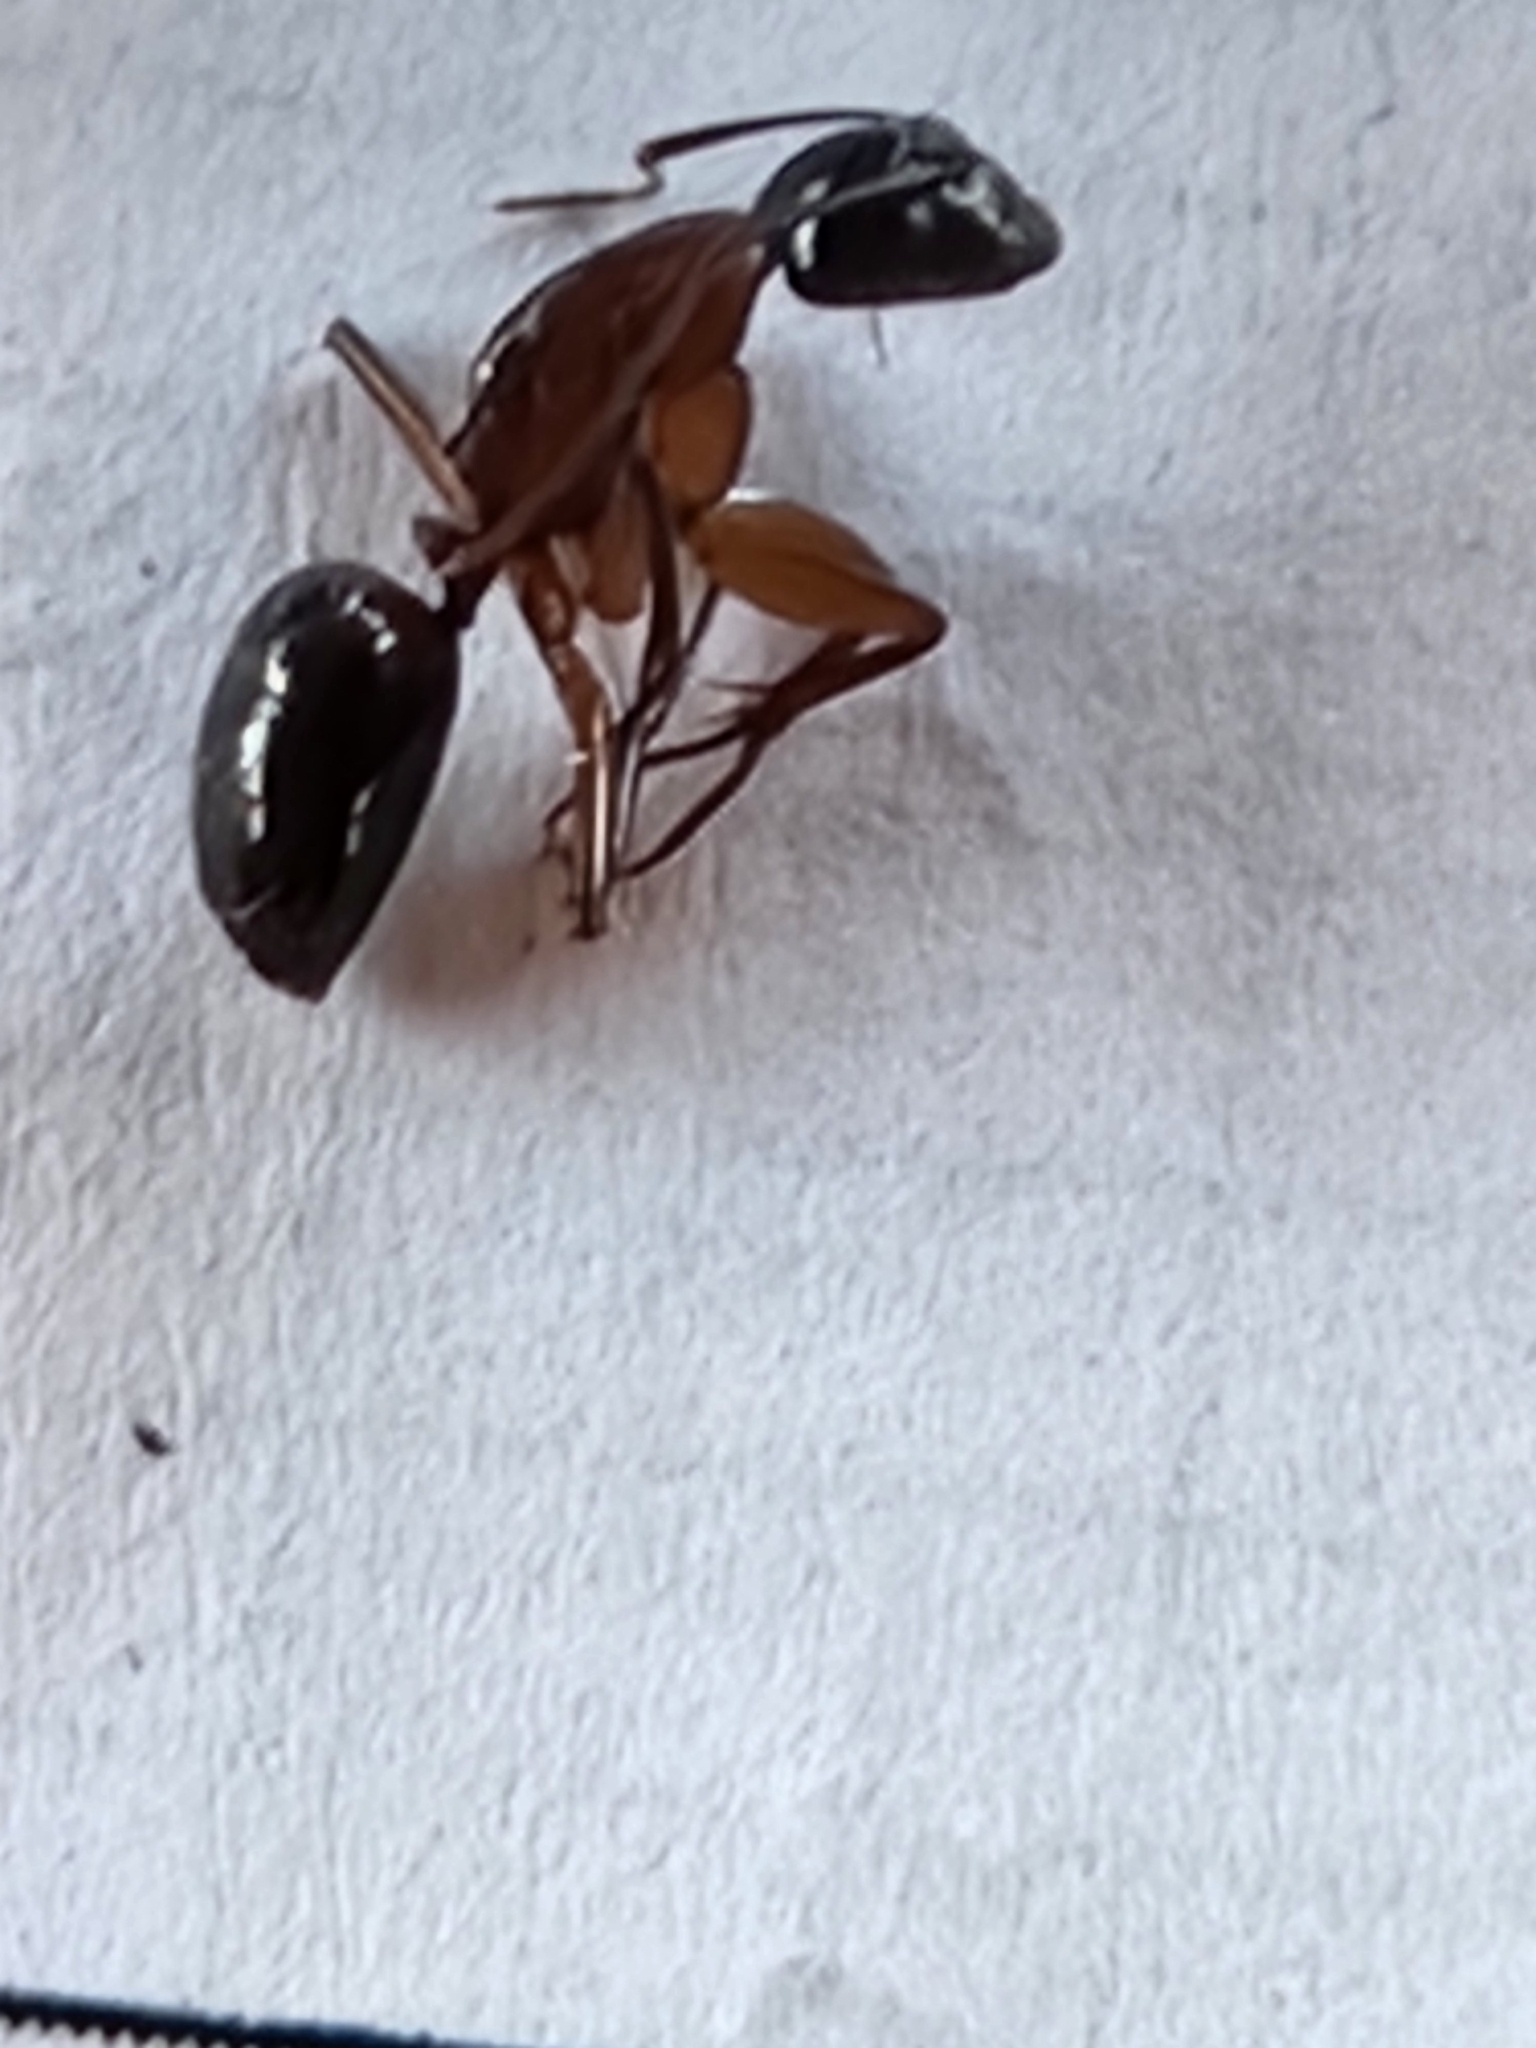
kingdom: Animalia
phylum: Arthropoda
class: Insecta
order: Hymenoptera
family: Formicidae
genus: Camponotus
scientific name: Camponotus texanus
